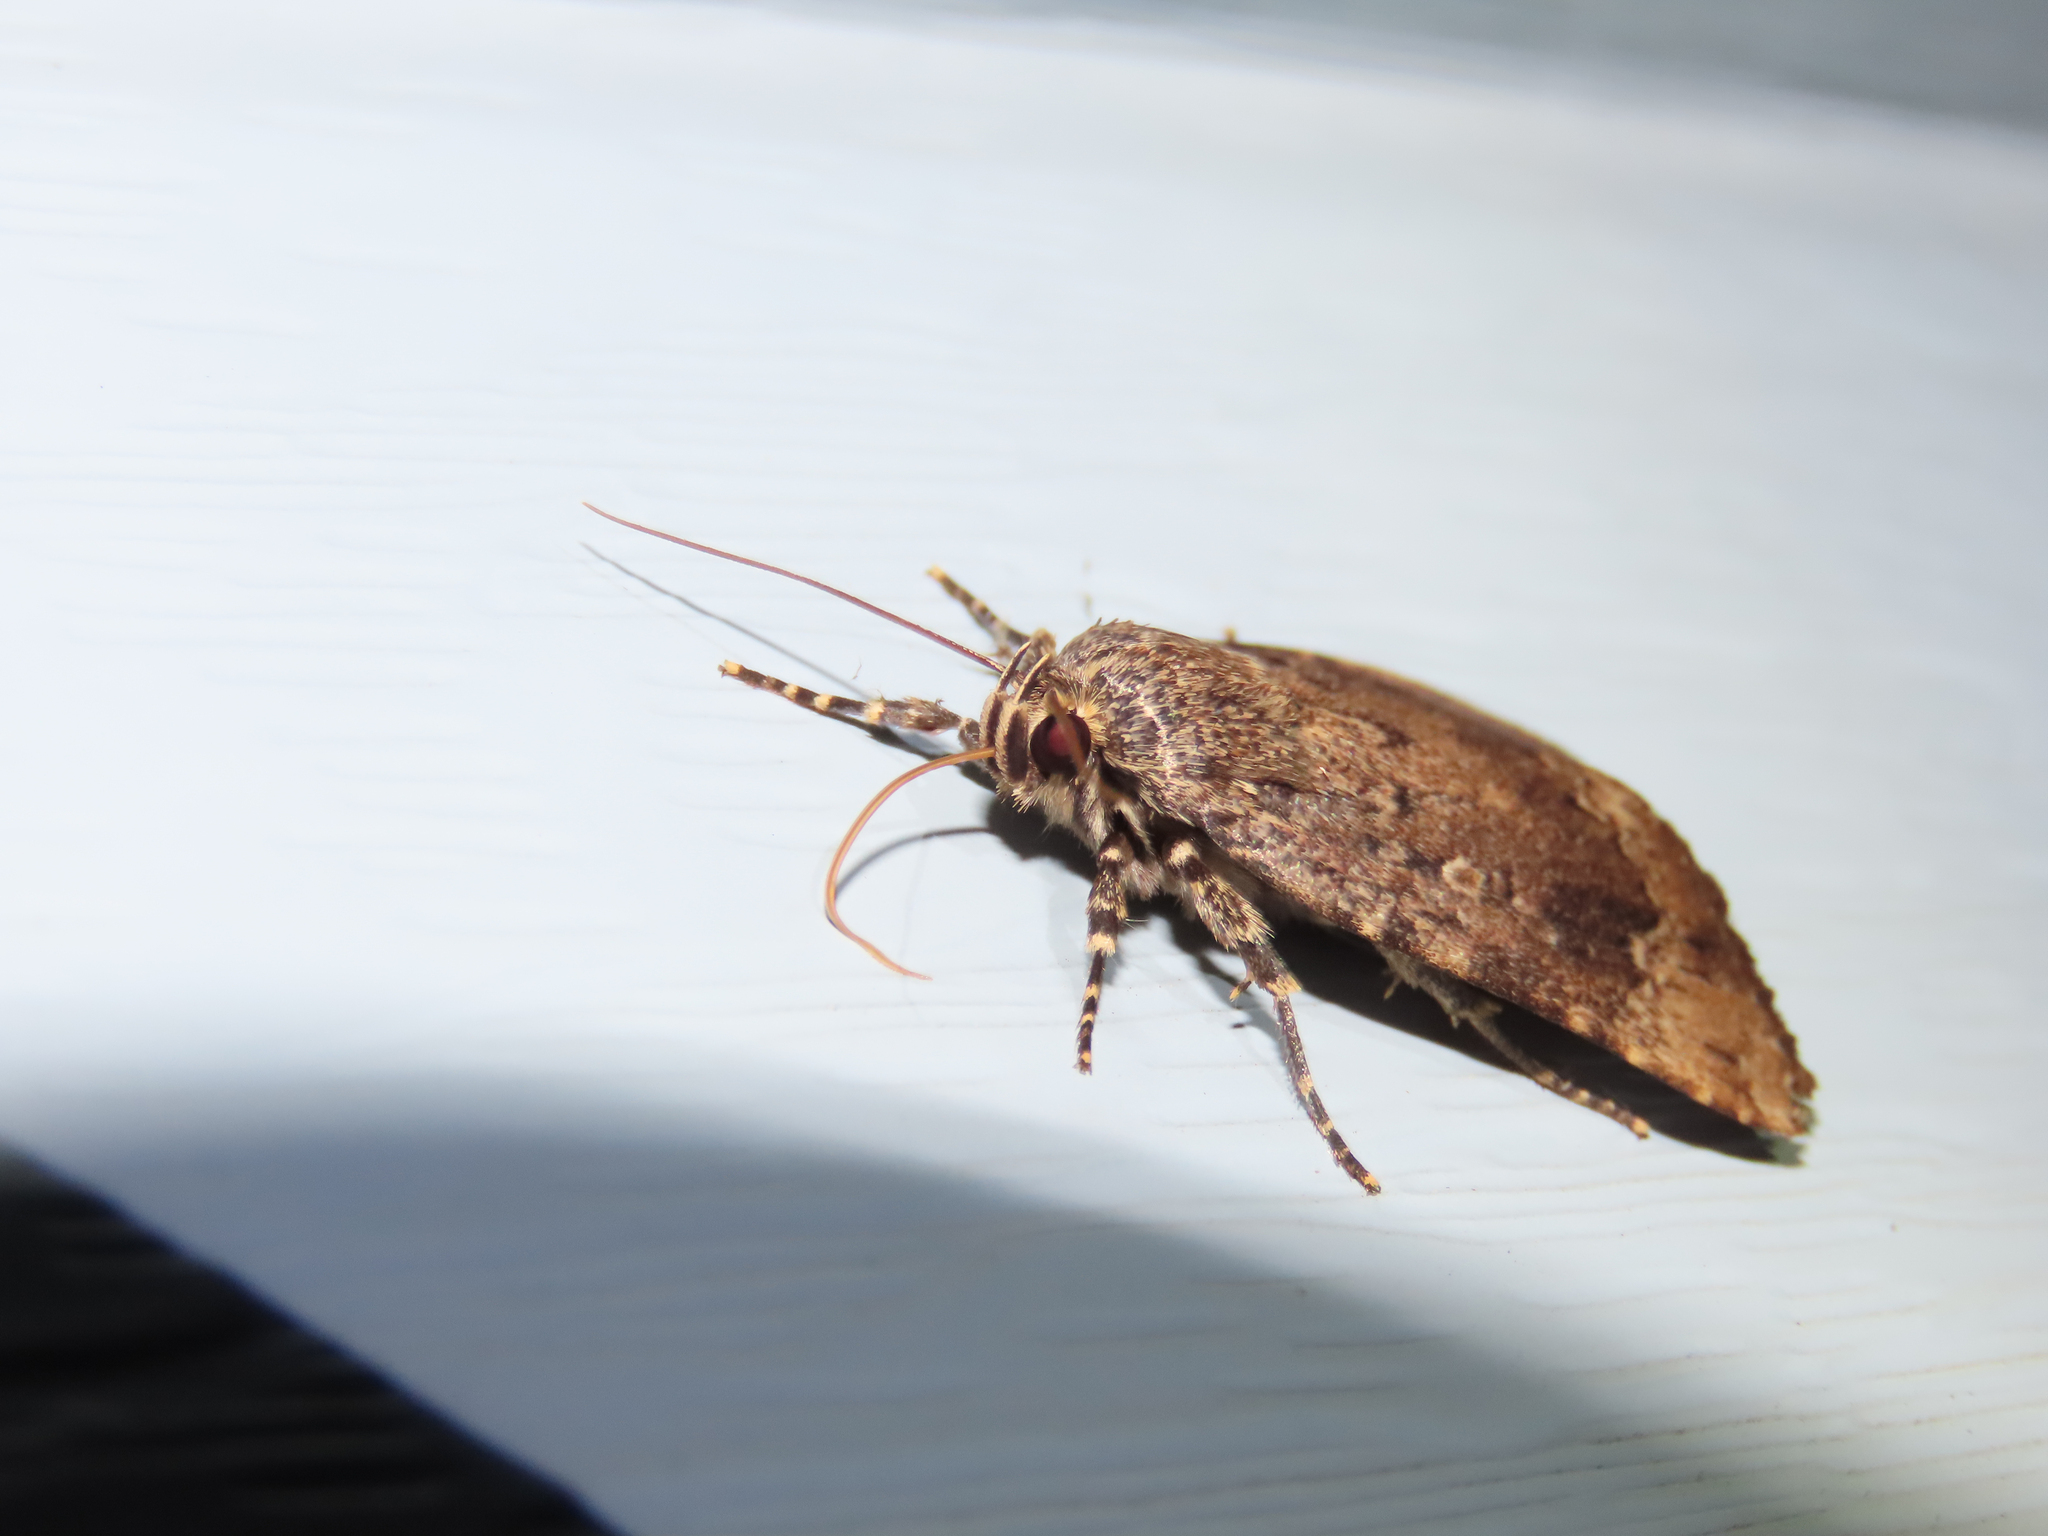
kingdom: Animalia
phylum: Arthropoda
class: Insecta
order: Lepidoptera
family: Noctuidae
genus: Amphipyra
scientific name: Amphipyra pyramidoides
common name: American copper underwing
